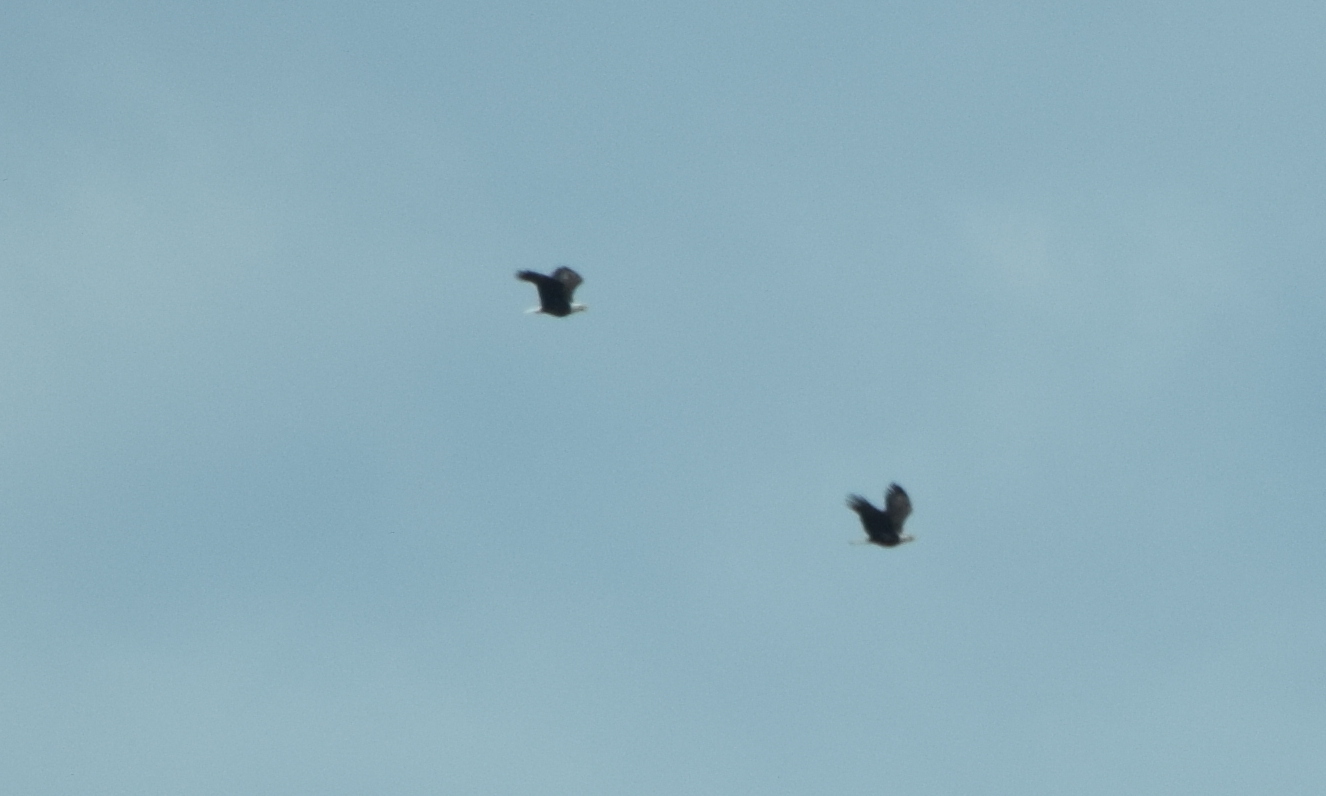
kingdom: Animalia
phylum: Chordata
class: Aves
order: Accipitriformes
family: Accipitridae
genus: Haliaeetus
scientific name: Haliaeetus leucocephalus
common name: Bald eagle
